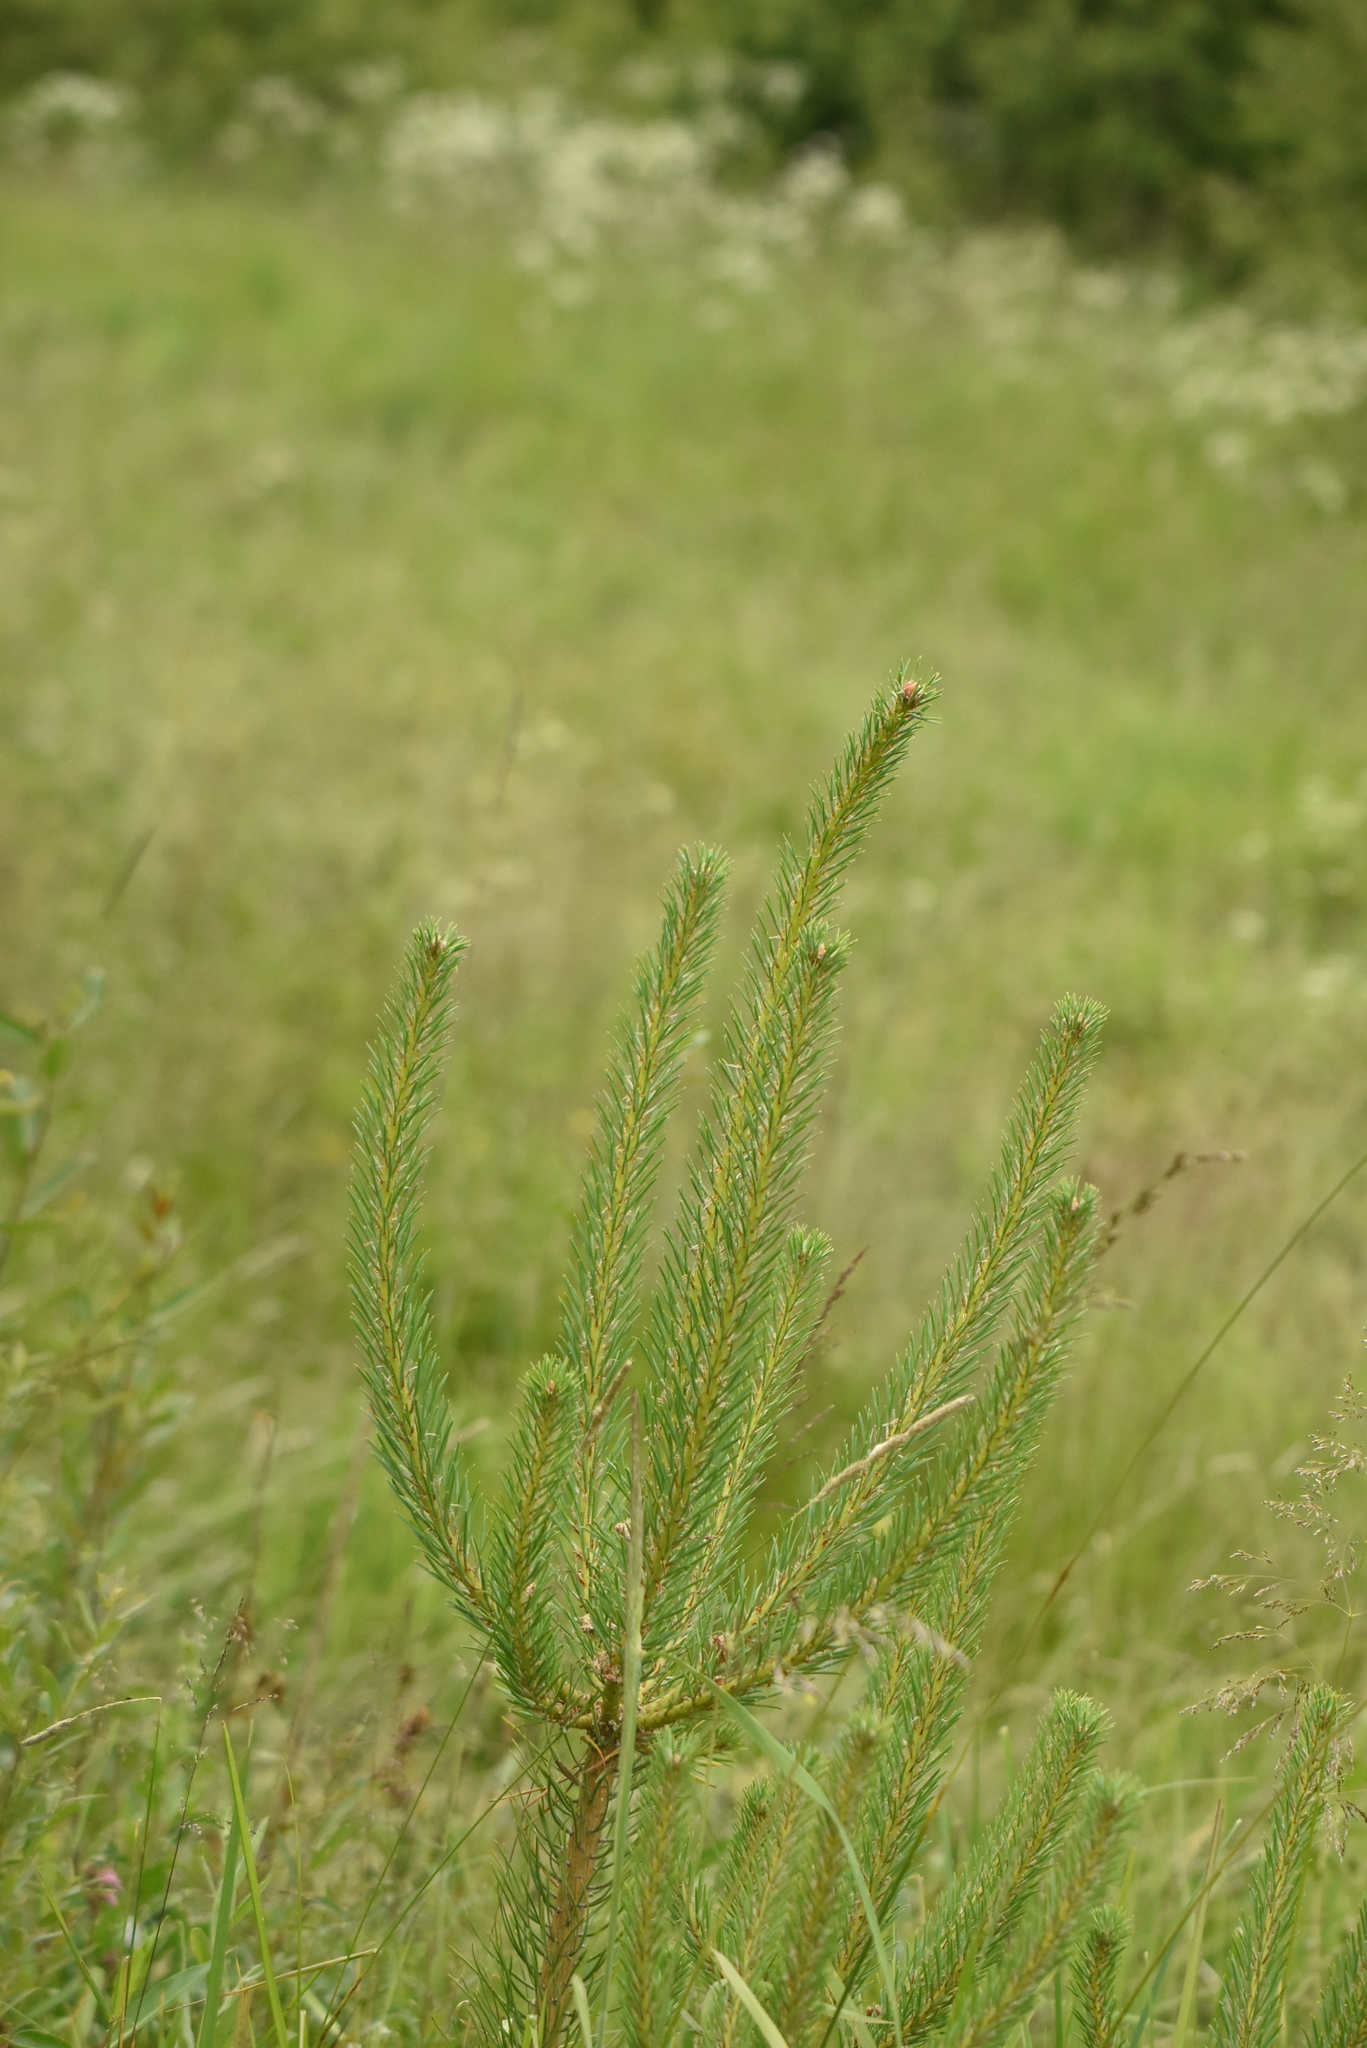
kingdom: Plantae
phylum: Tracheophyta
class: Pinopsida
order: Pinales
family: Pinaceae
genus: Pinus
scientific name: Pinus sylvestris
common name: Scots pine
